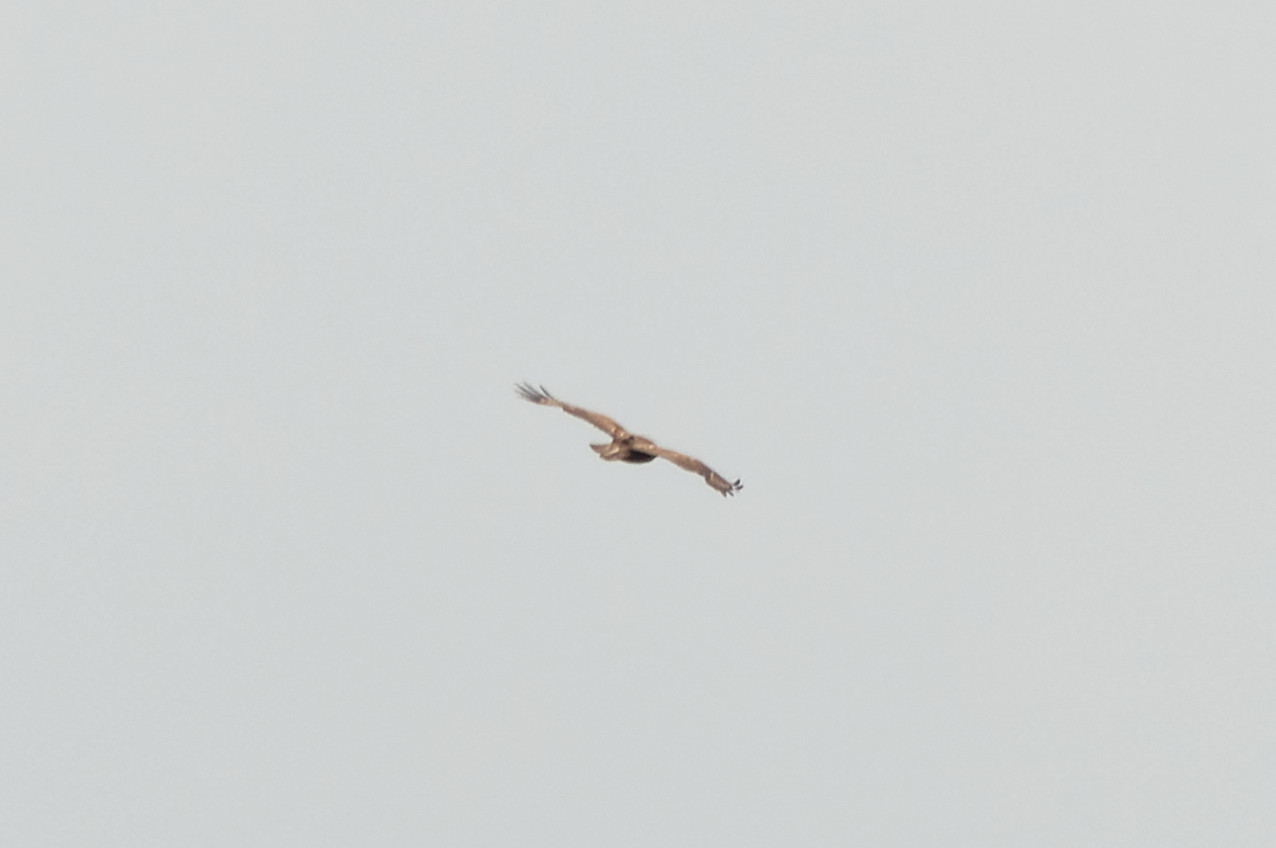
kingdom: Animalia
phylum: Chordata
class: Aves
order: Accipitriformes
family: Accipitridae
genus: Buteo
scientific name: Buteo buteo
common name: Common buzzard
